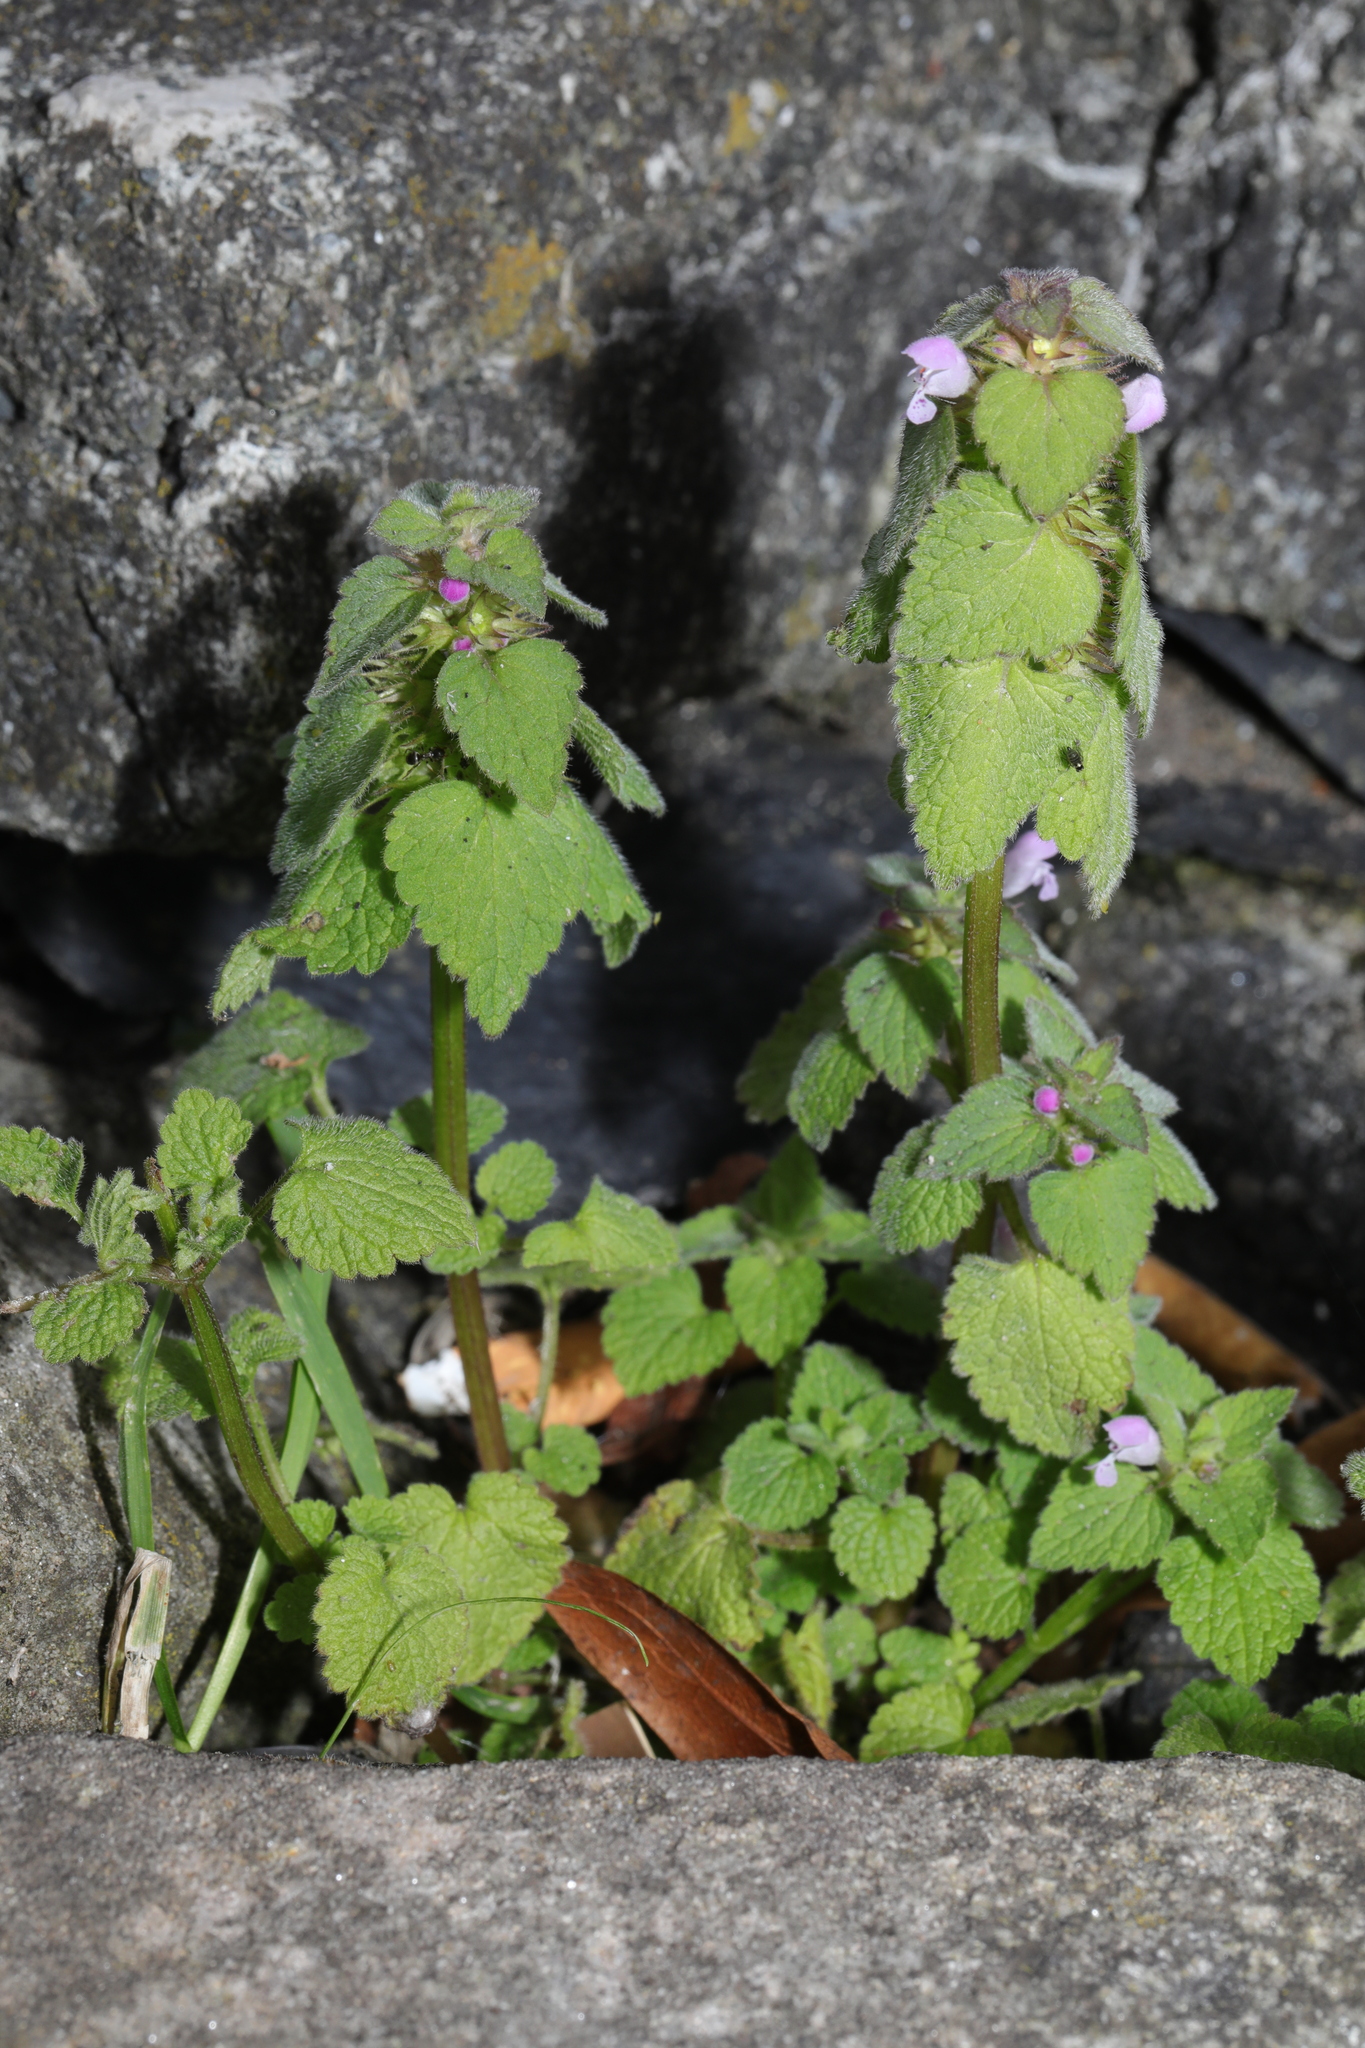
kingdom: Plantae
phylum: Tracheophyta
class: Magnoliopsida
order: Lamiales
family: Lamiaceae
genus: Lamium
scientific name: Lamium purpureum
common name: Red dead-nettle
